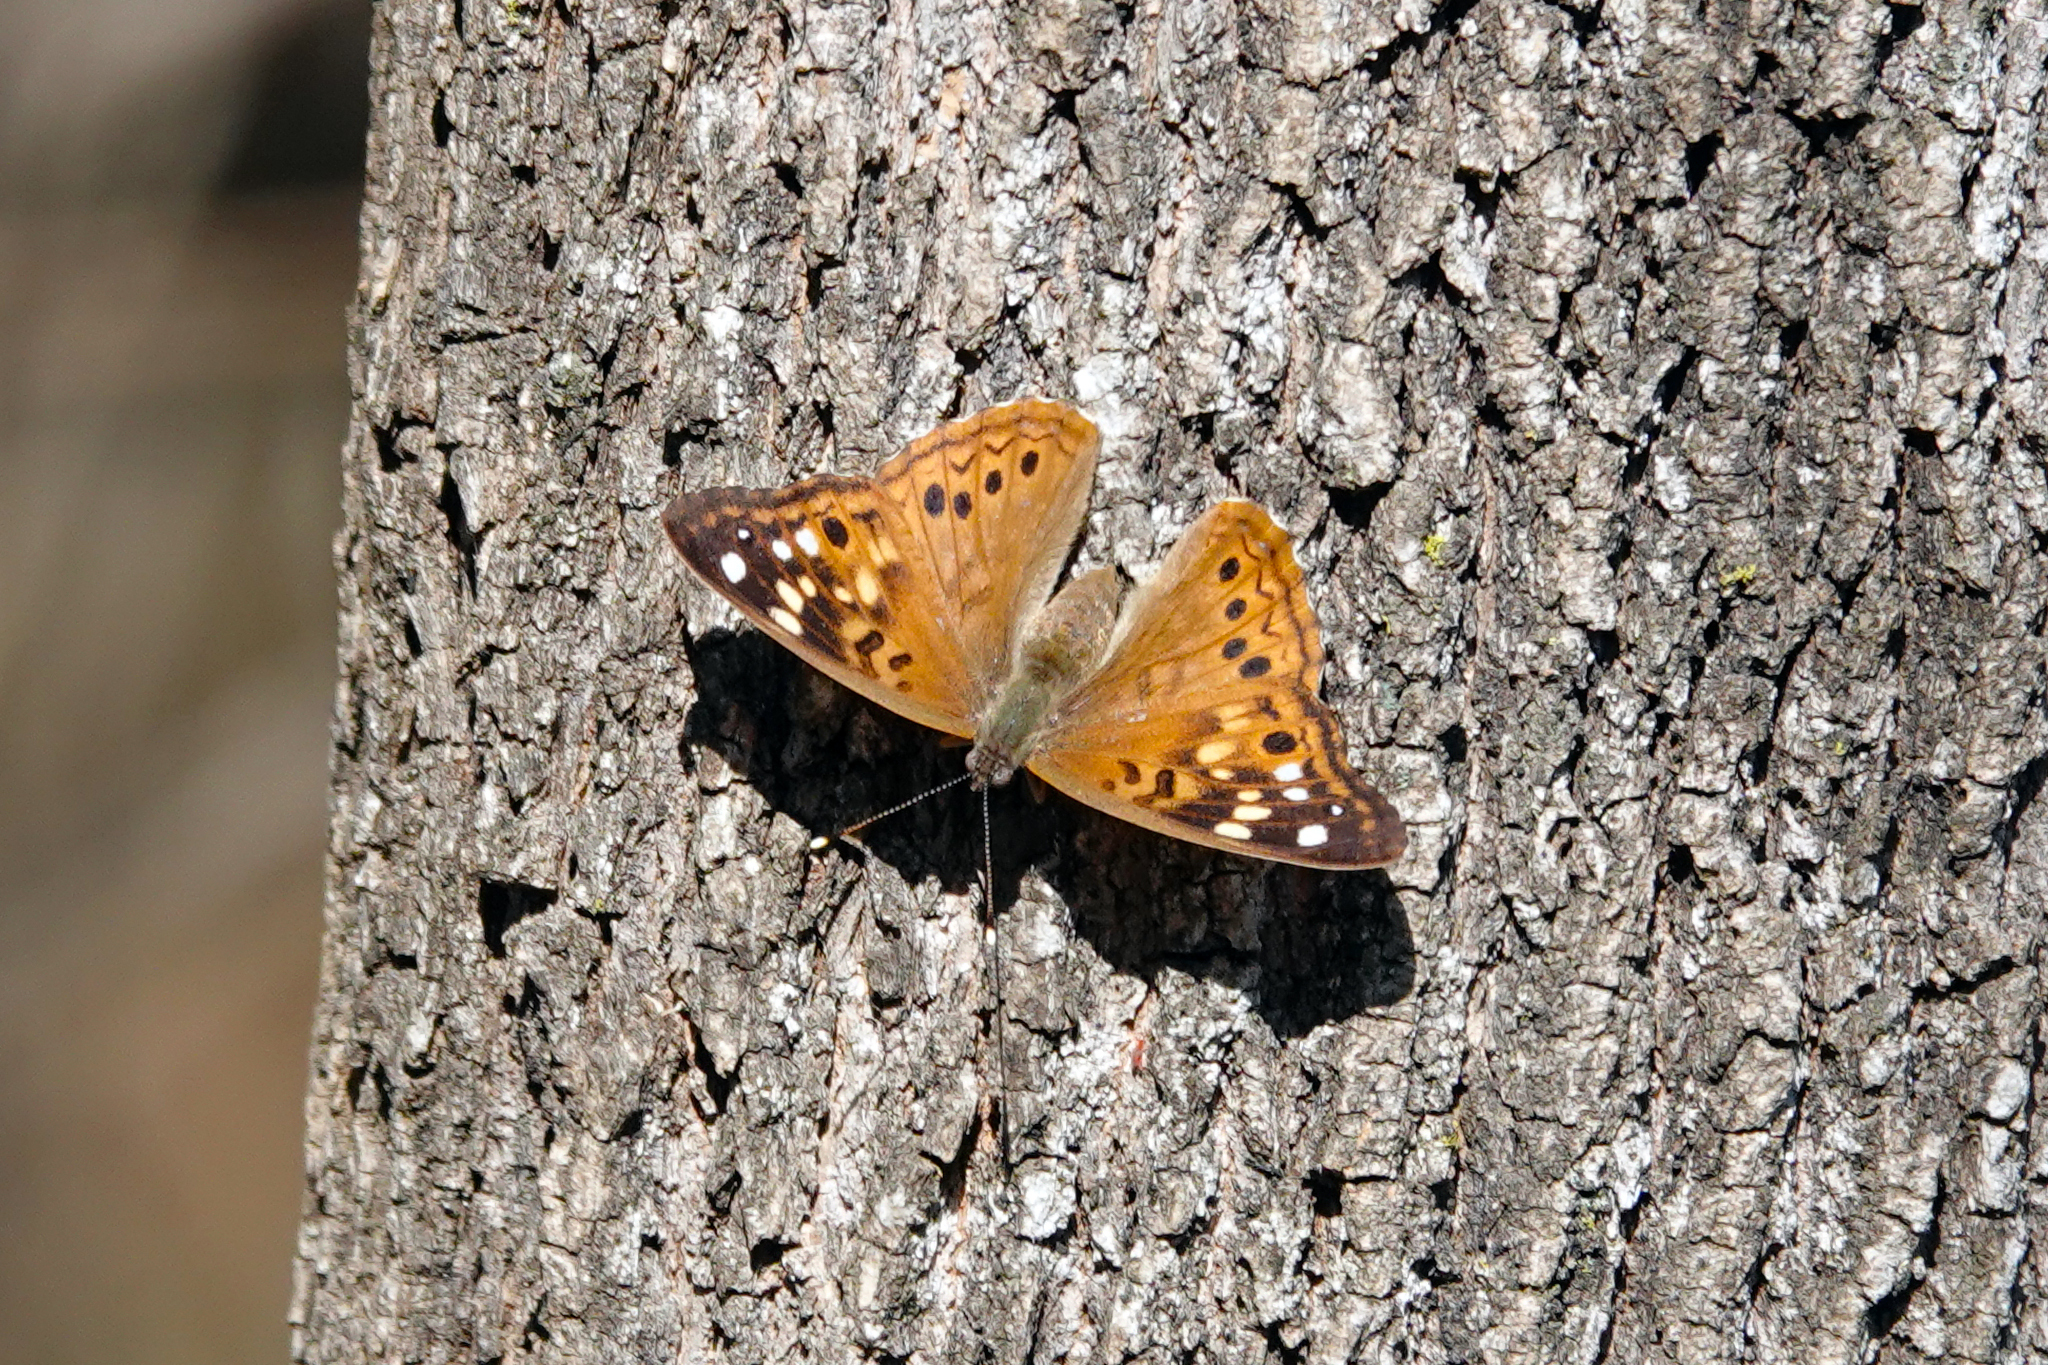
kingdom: Animalia
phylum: Arthropoda
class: Insecta
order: Lepidoptera
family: Nymphalidae
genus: Asterocampa
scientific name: Asterocampa celtis
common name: Hackberry emperor
